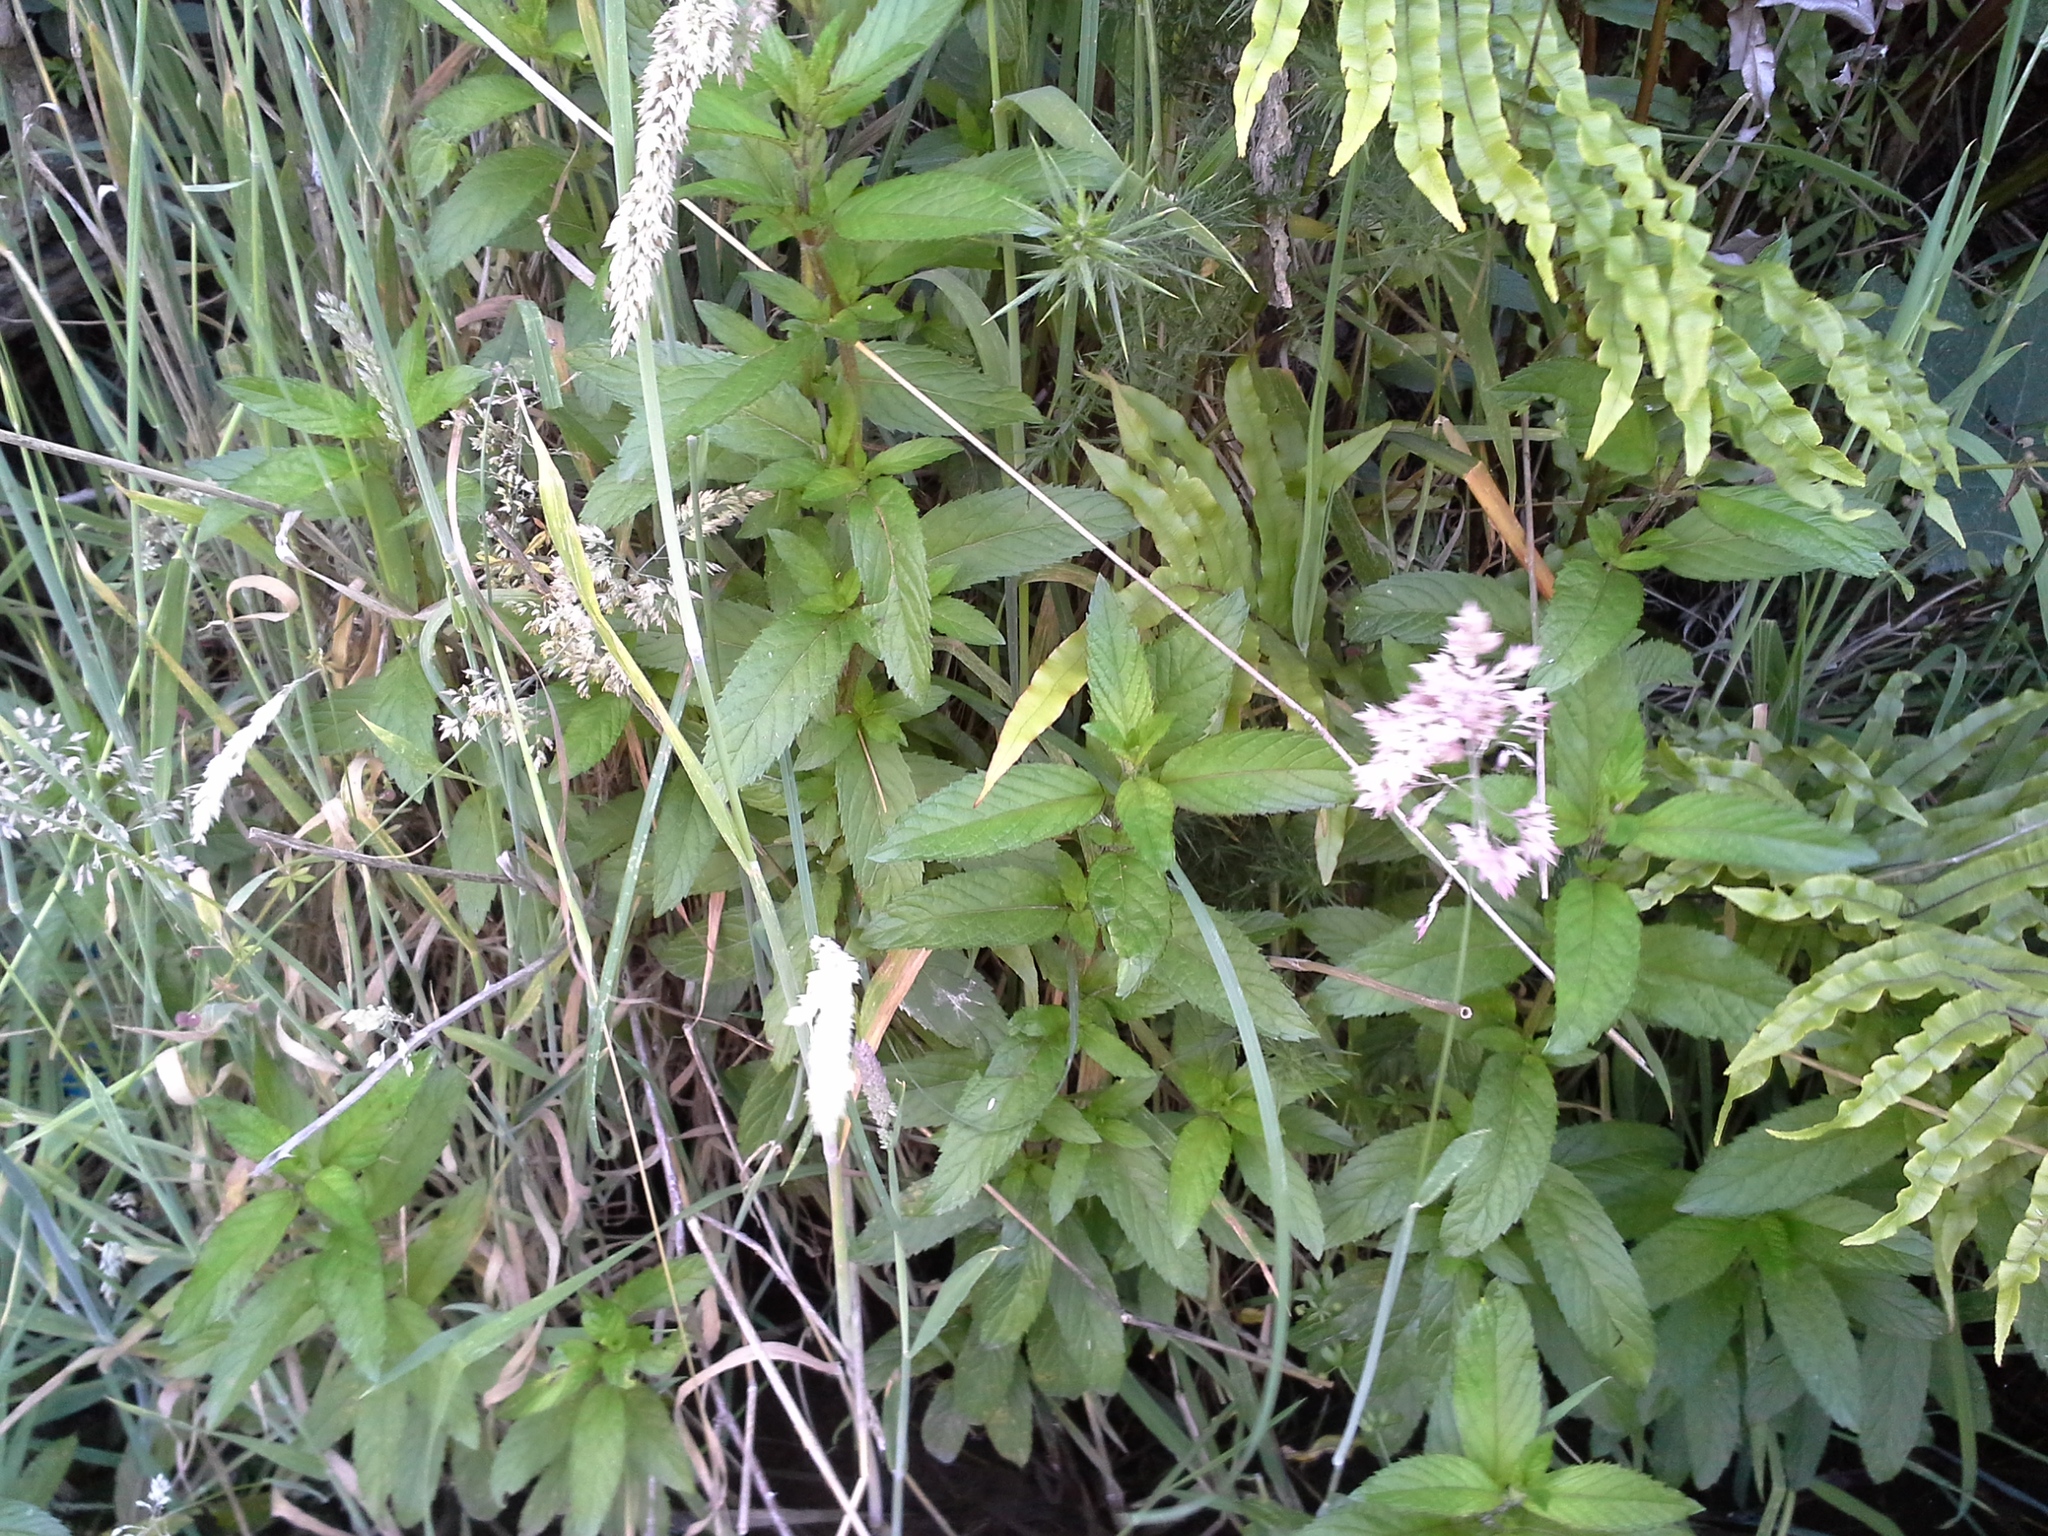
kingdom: Plantae
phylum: Tracheophyta
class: Magnoliopsida
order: Lamiales
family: Lamiaceae
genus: Mentha
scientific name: Mentha spicata
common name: Spearmint
